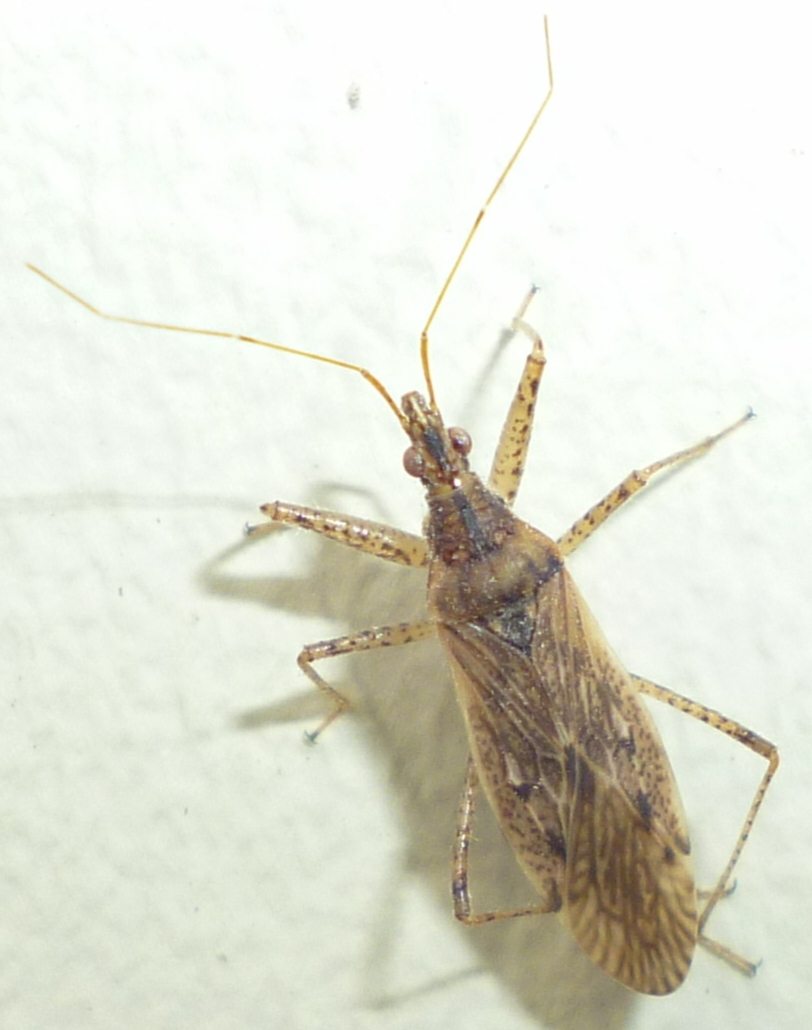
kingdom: Animalia
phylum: Arthropoda
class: Insecta
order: Hemiptera
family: Nabidae
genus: Nabis
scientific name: Nabis roseipennis
